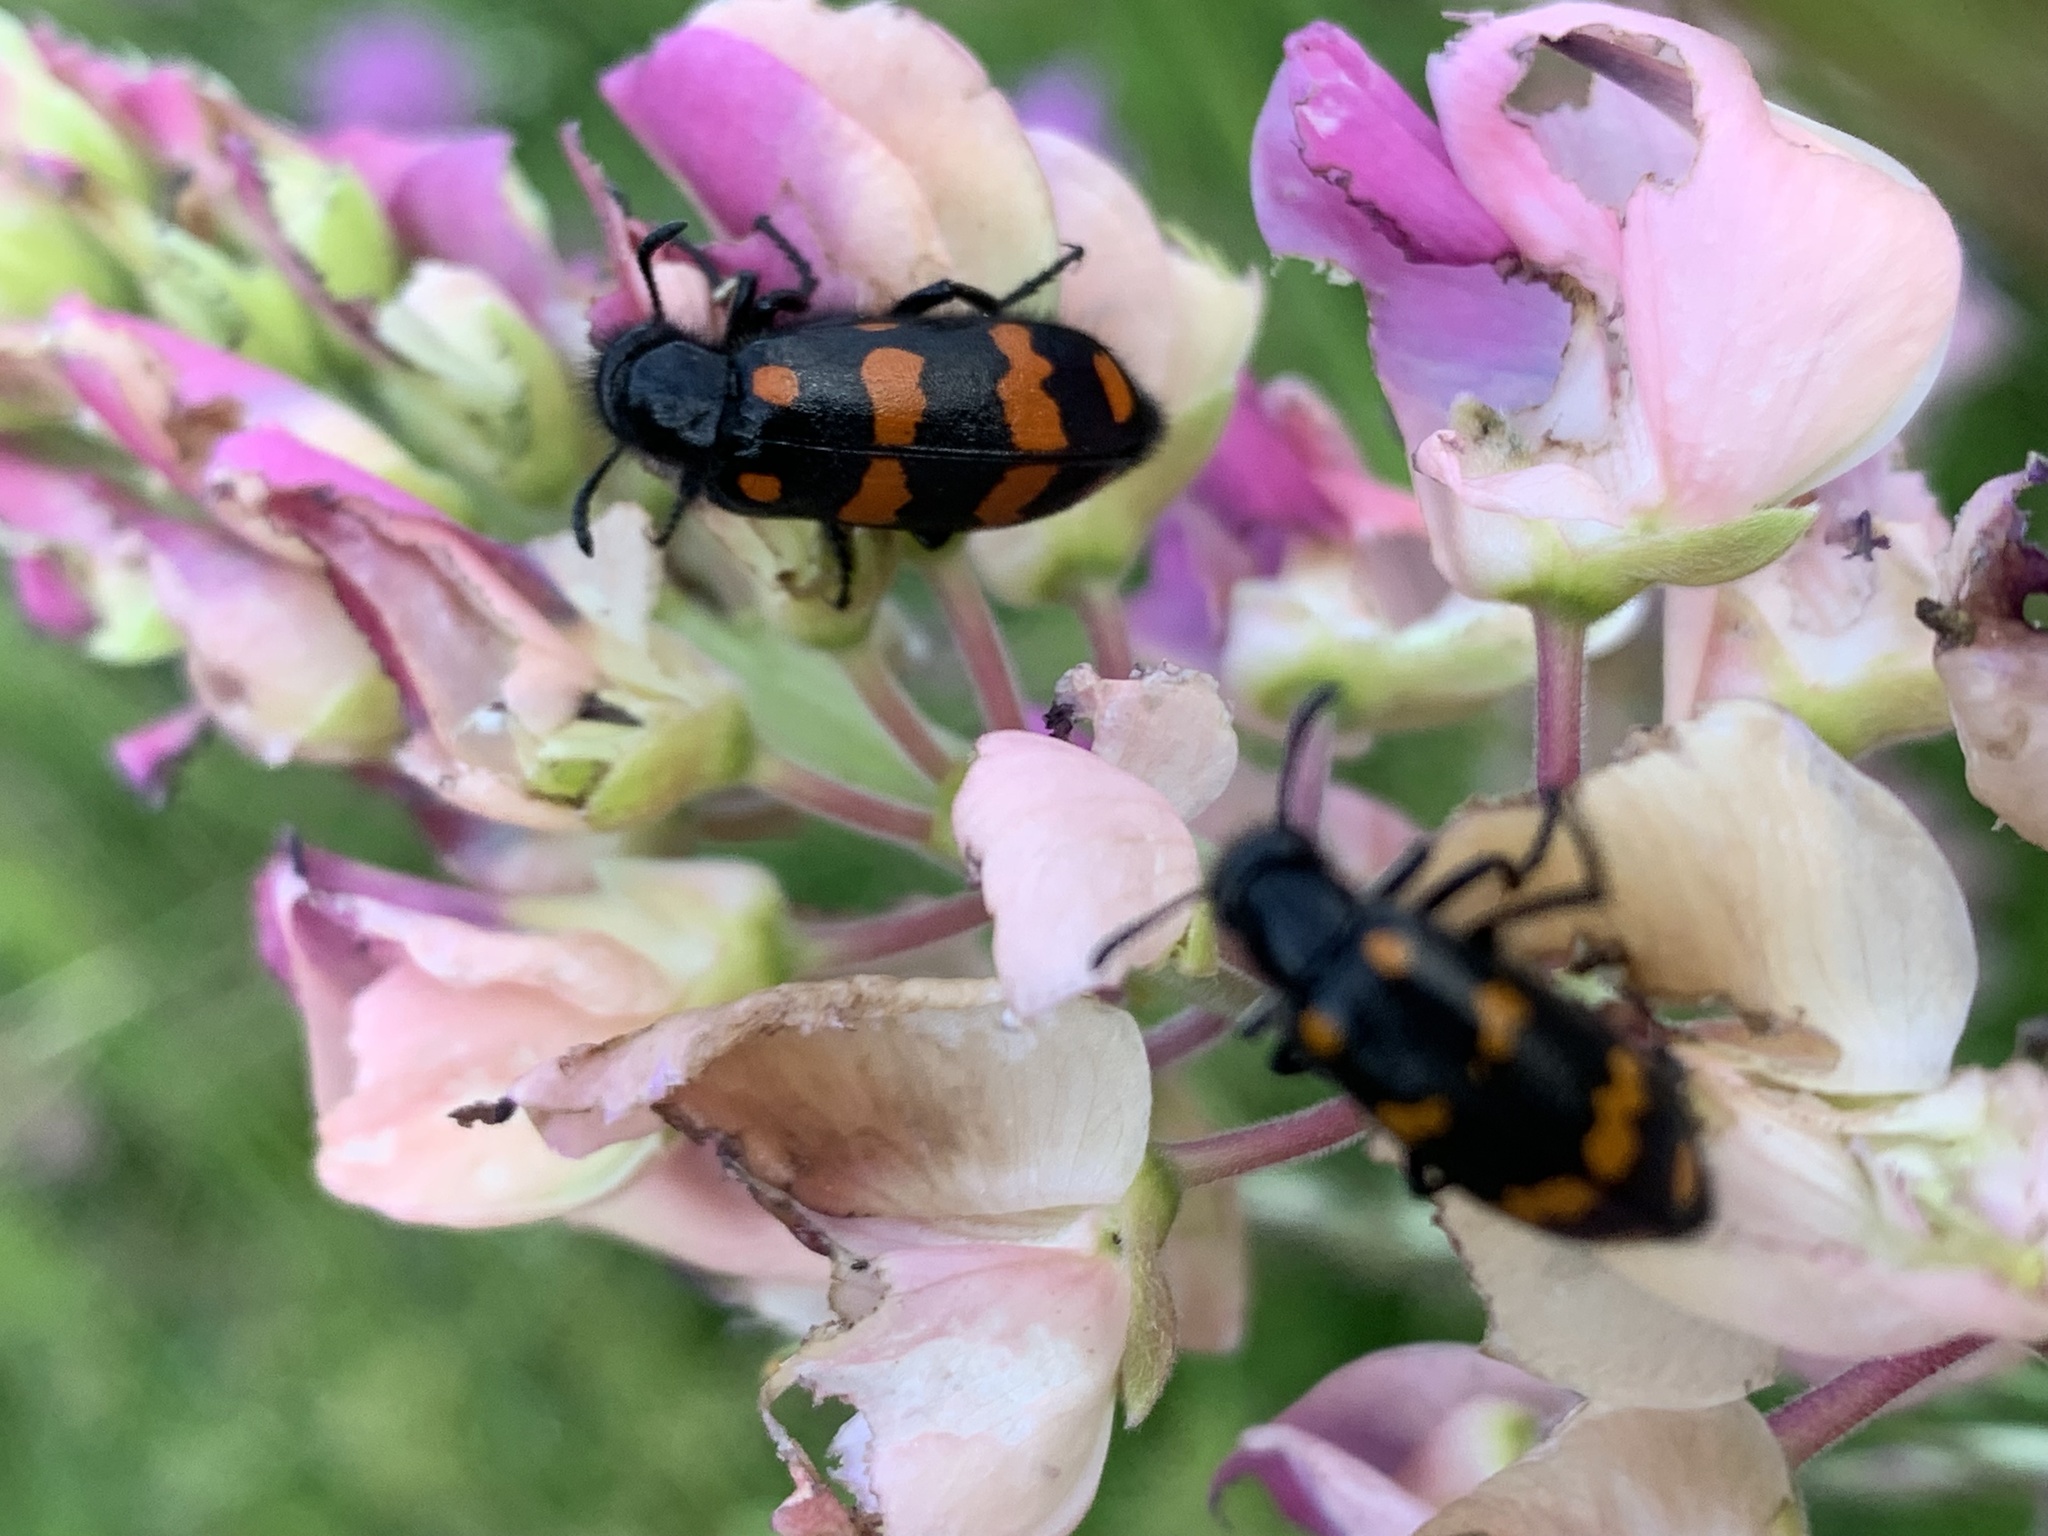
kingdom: Animalia
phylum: Arthropoda
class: Insecta
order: Coleoptera
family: Meloidae
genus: Hycleus
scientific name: Hycleus polymorphus
